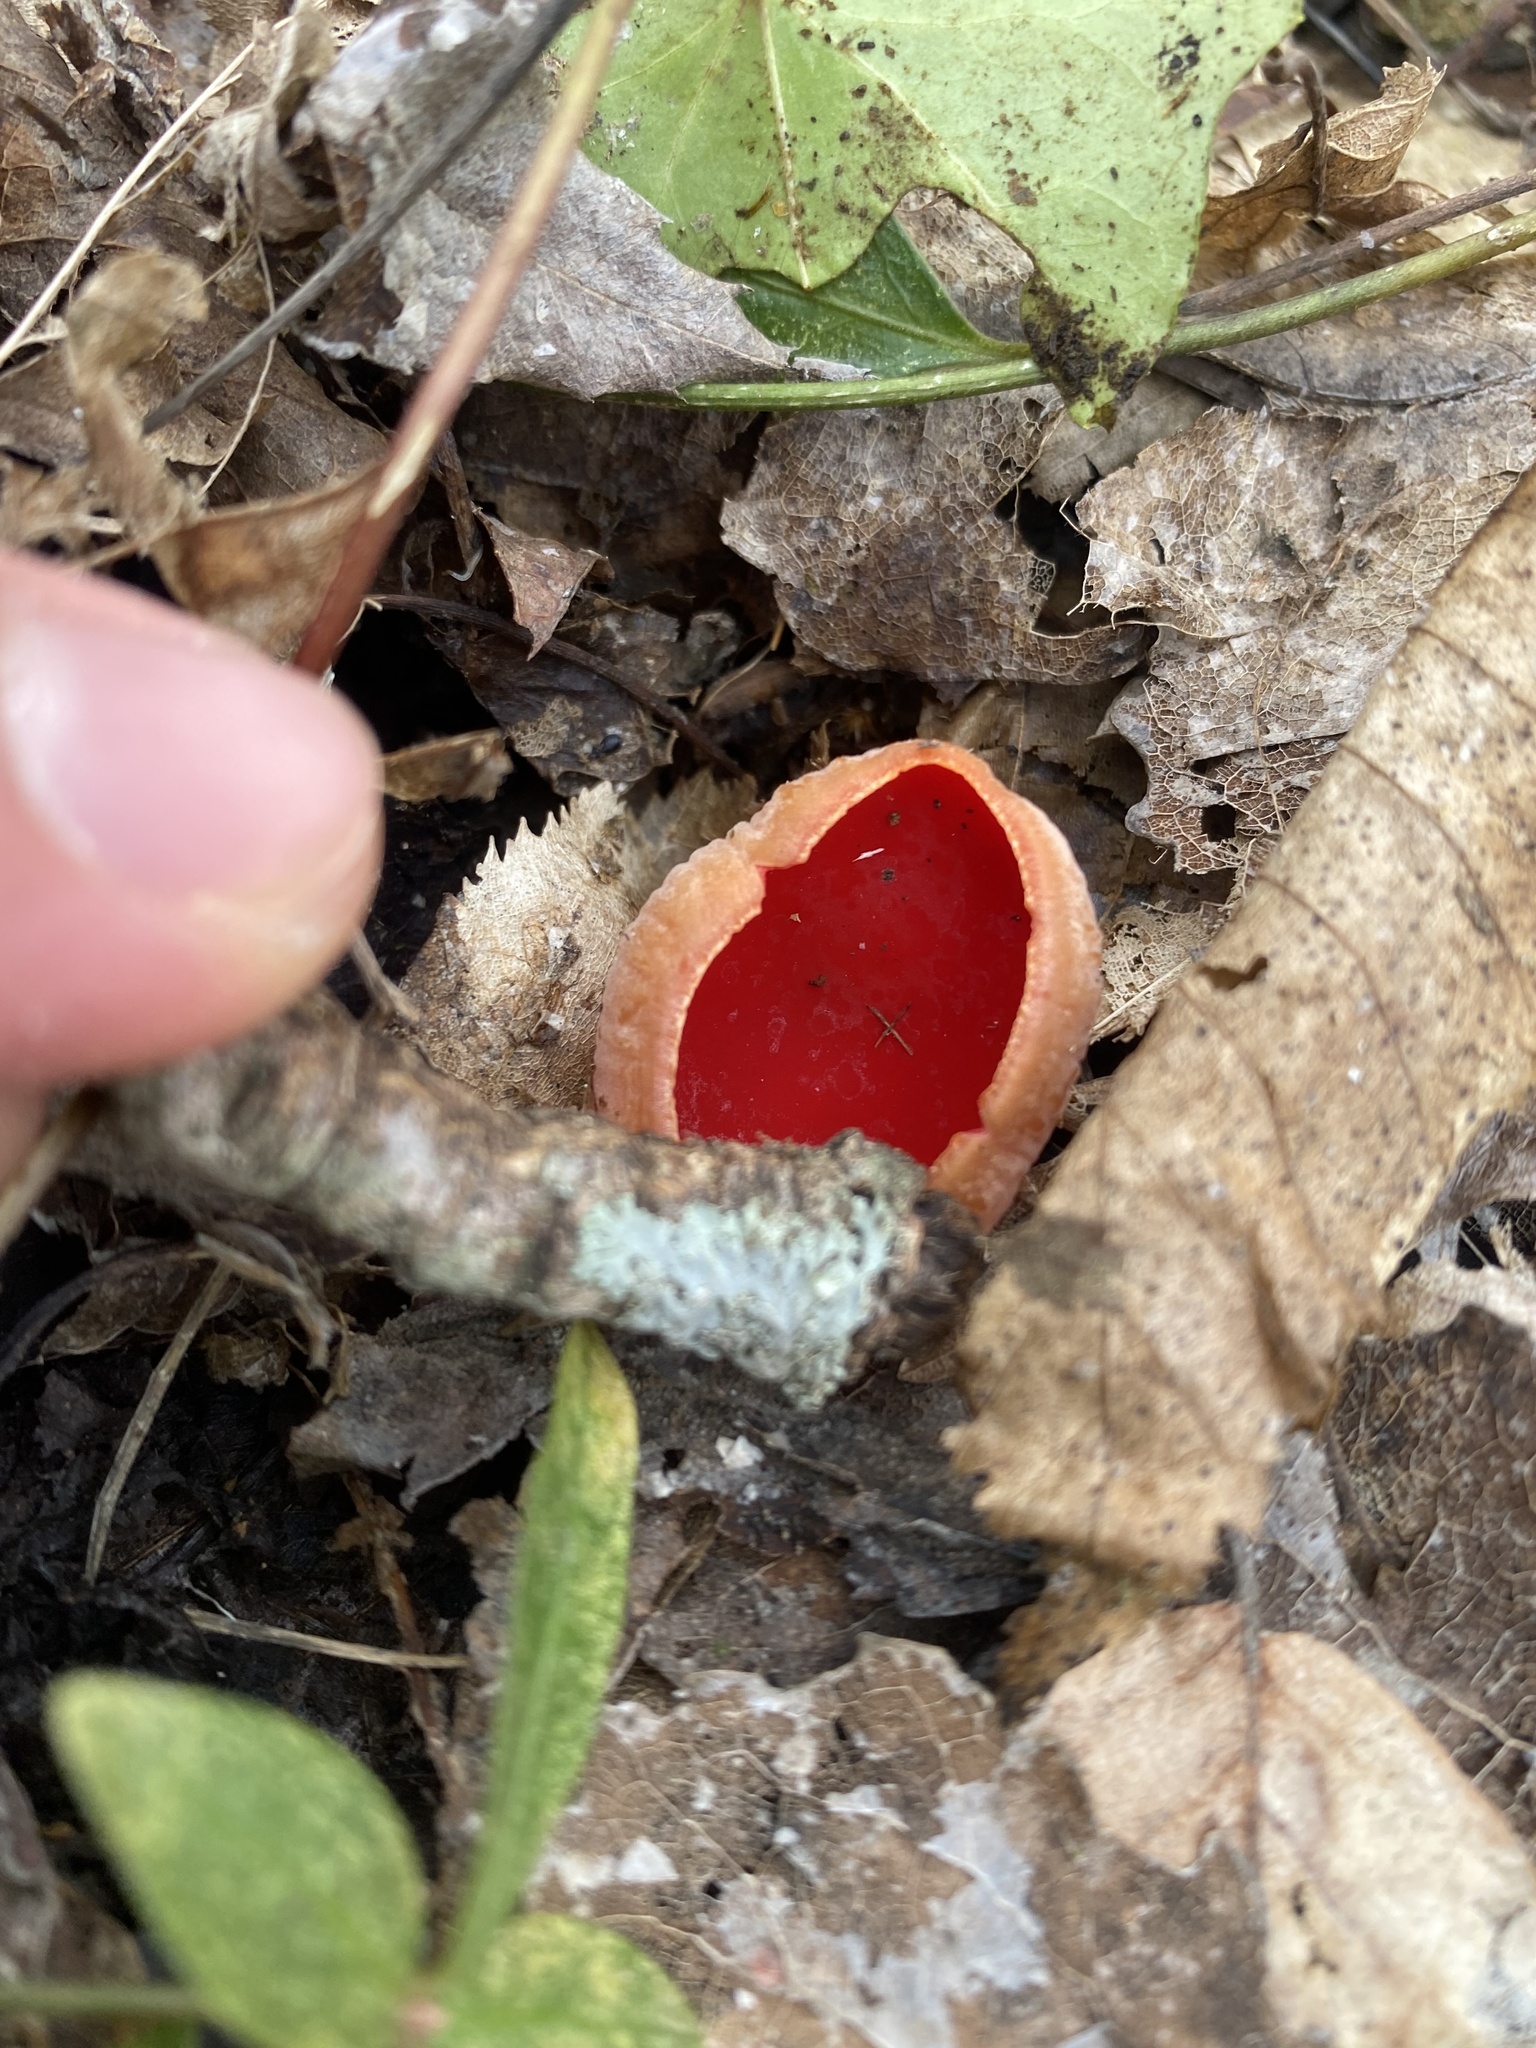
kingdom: Fungi
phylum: Ascomycota
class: Pezizomycetes
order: Pezizales
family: Sarcoscyphaceae
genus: Sarcoscypha
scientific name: Sarcoscypha
